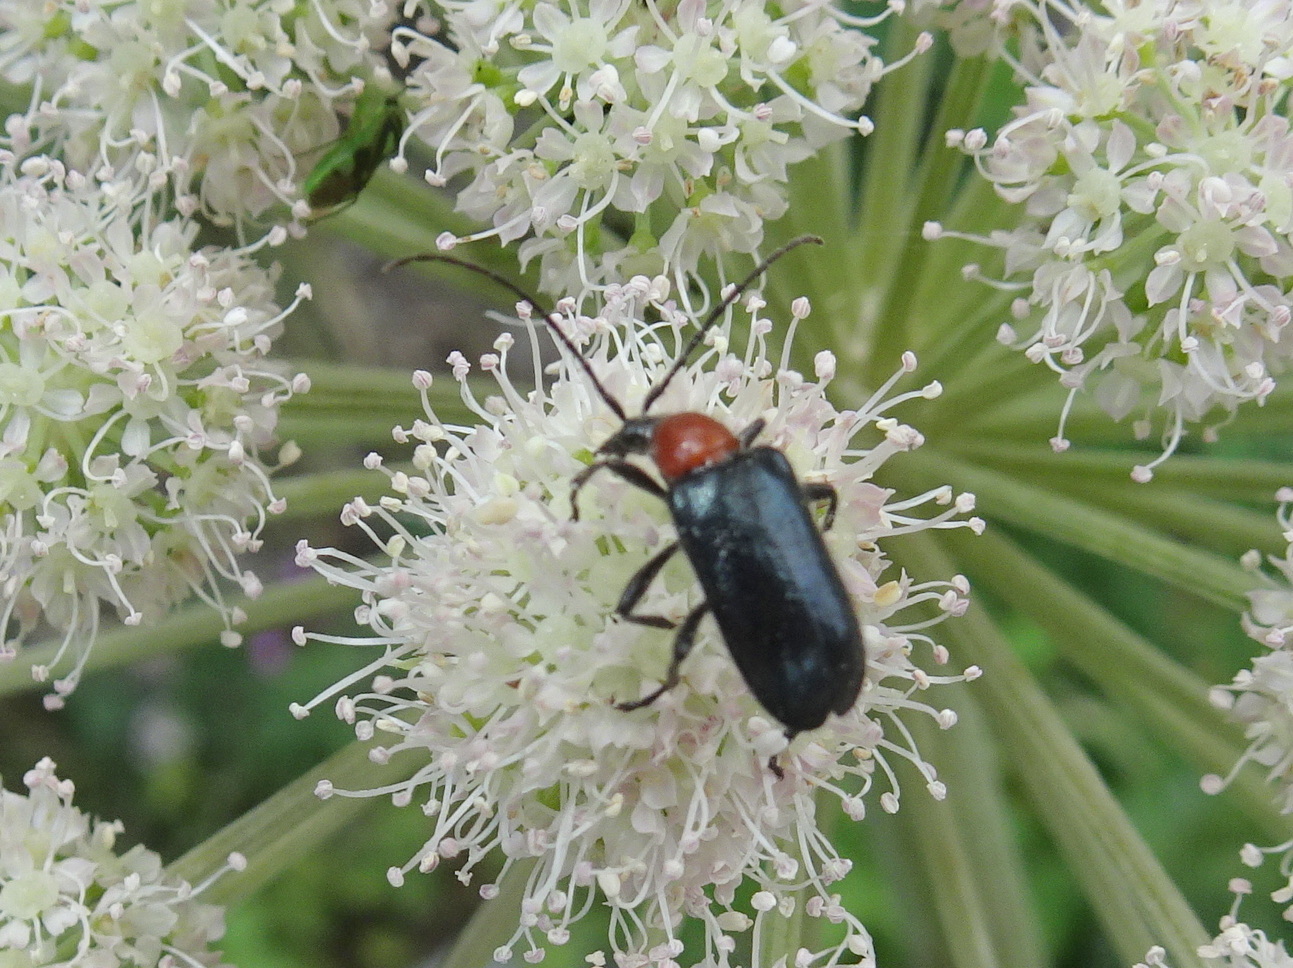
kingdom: Animalia
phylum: Arthropoda
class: Insecta
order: Coleoptera
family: Cerambycidae
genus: Dinoptera
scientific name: Dinoptera collaris
